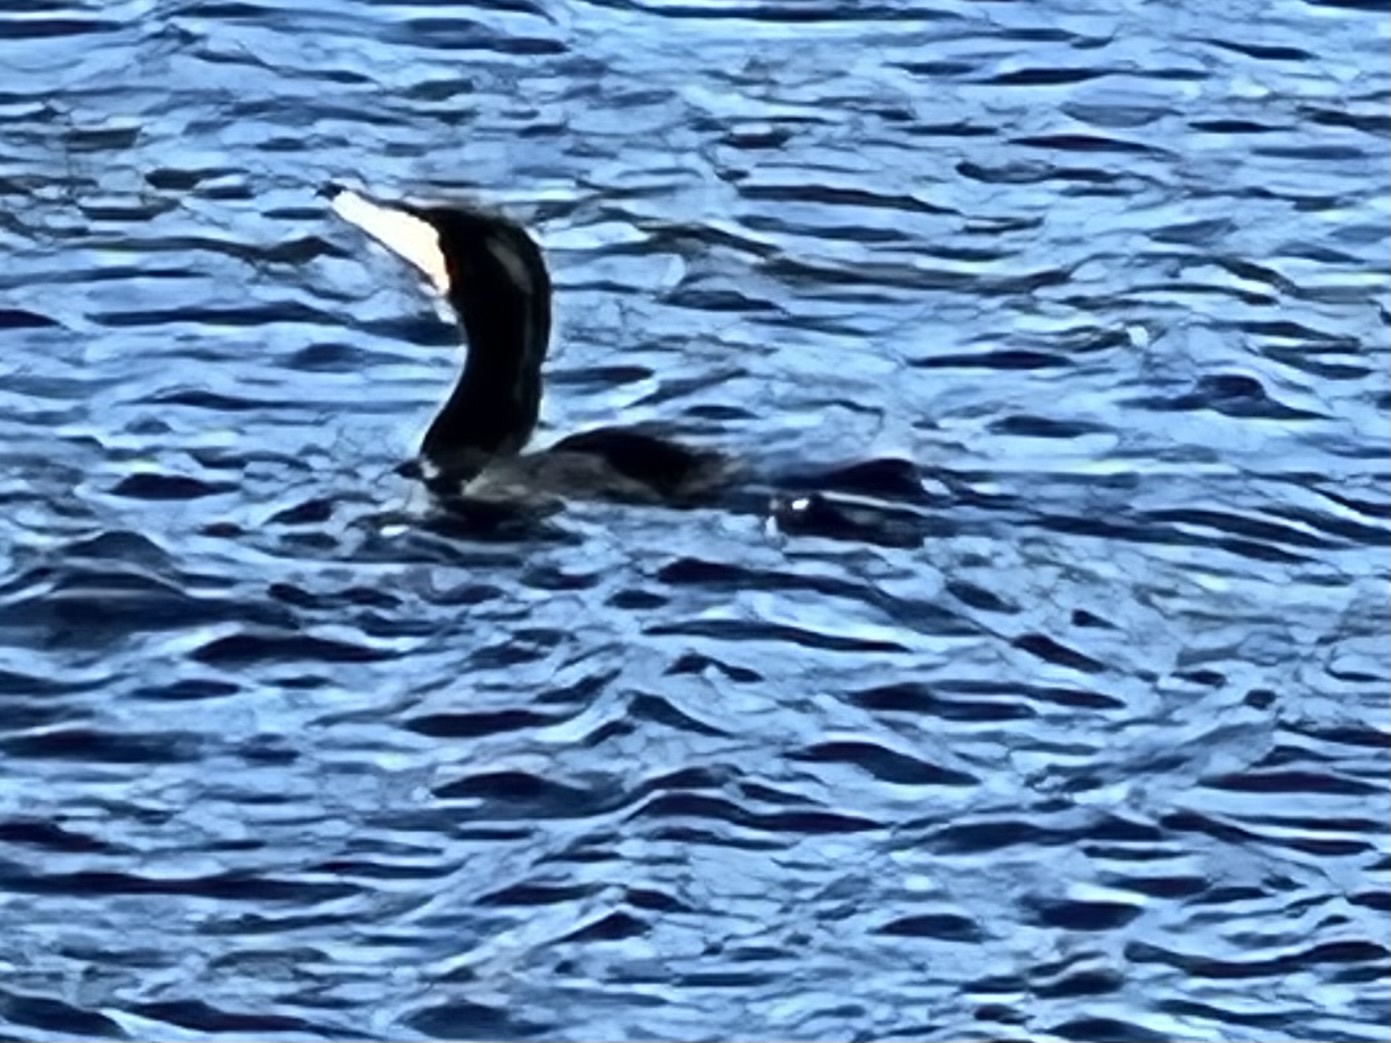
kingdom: Animalia
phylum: Chordata
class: Aves
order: Suliformes
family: Phalacrocoracidae
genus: Phalacrocorax
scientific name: Phalacrocorax auritus
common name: Double-crested cormorant
